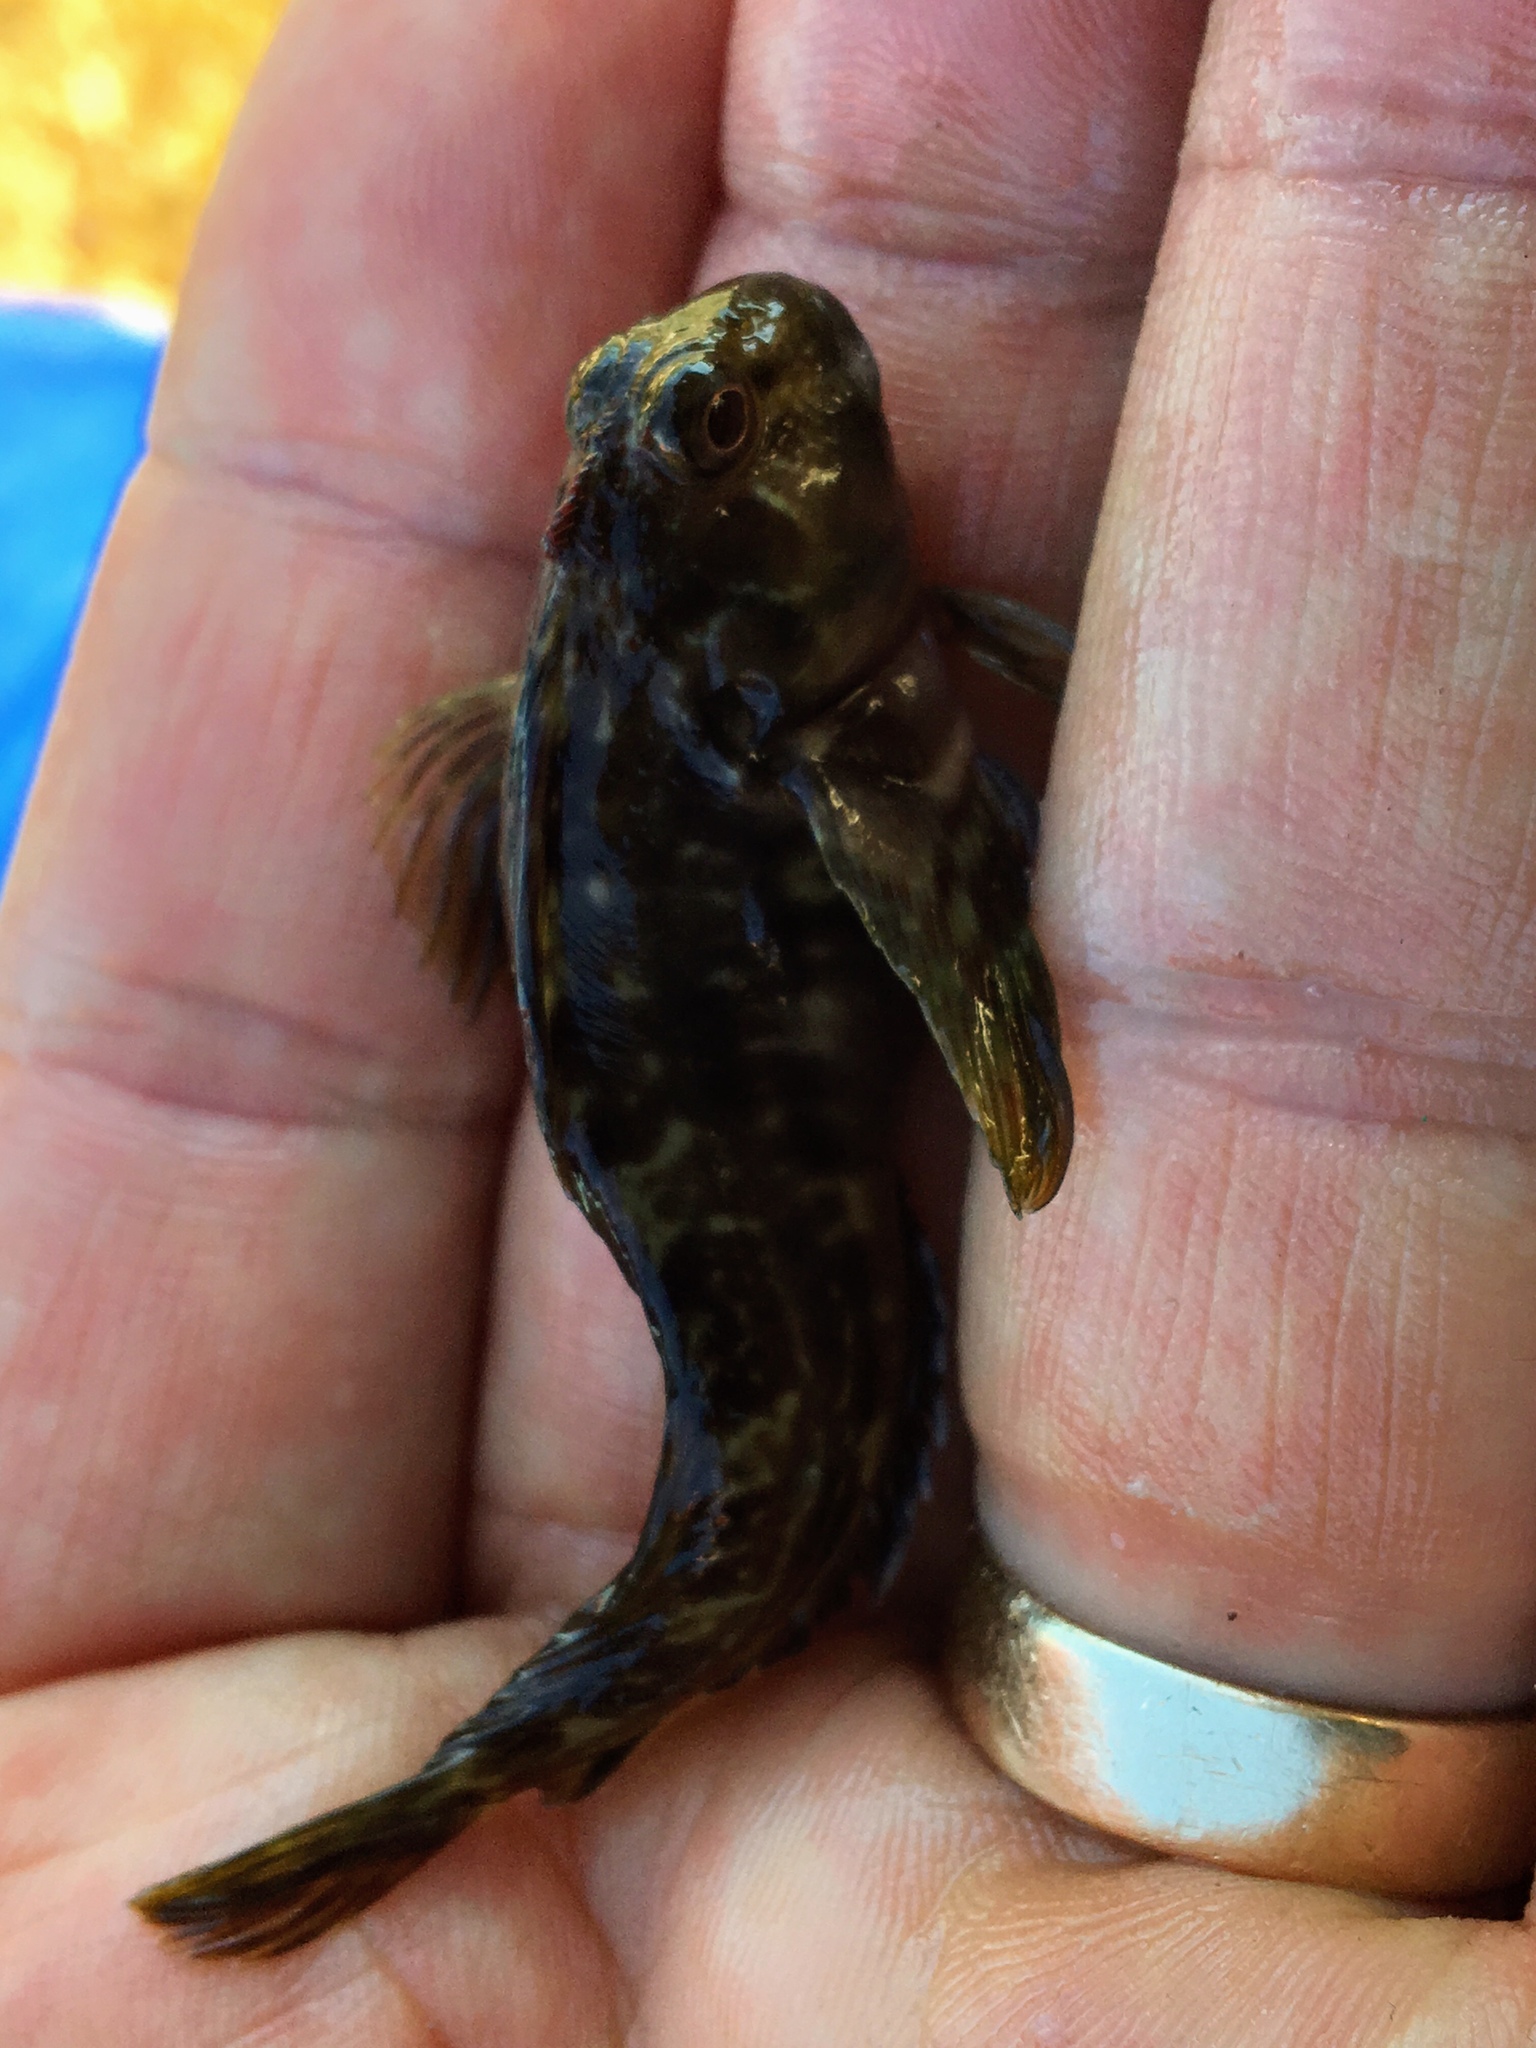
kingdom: Animalia
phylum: Chordata
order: Perciformes
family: Blenniidae
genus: Scartella
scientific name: Scartella cristata
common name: Molly miller
